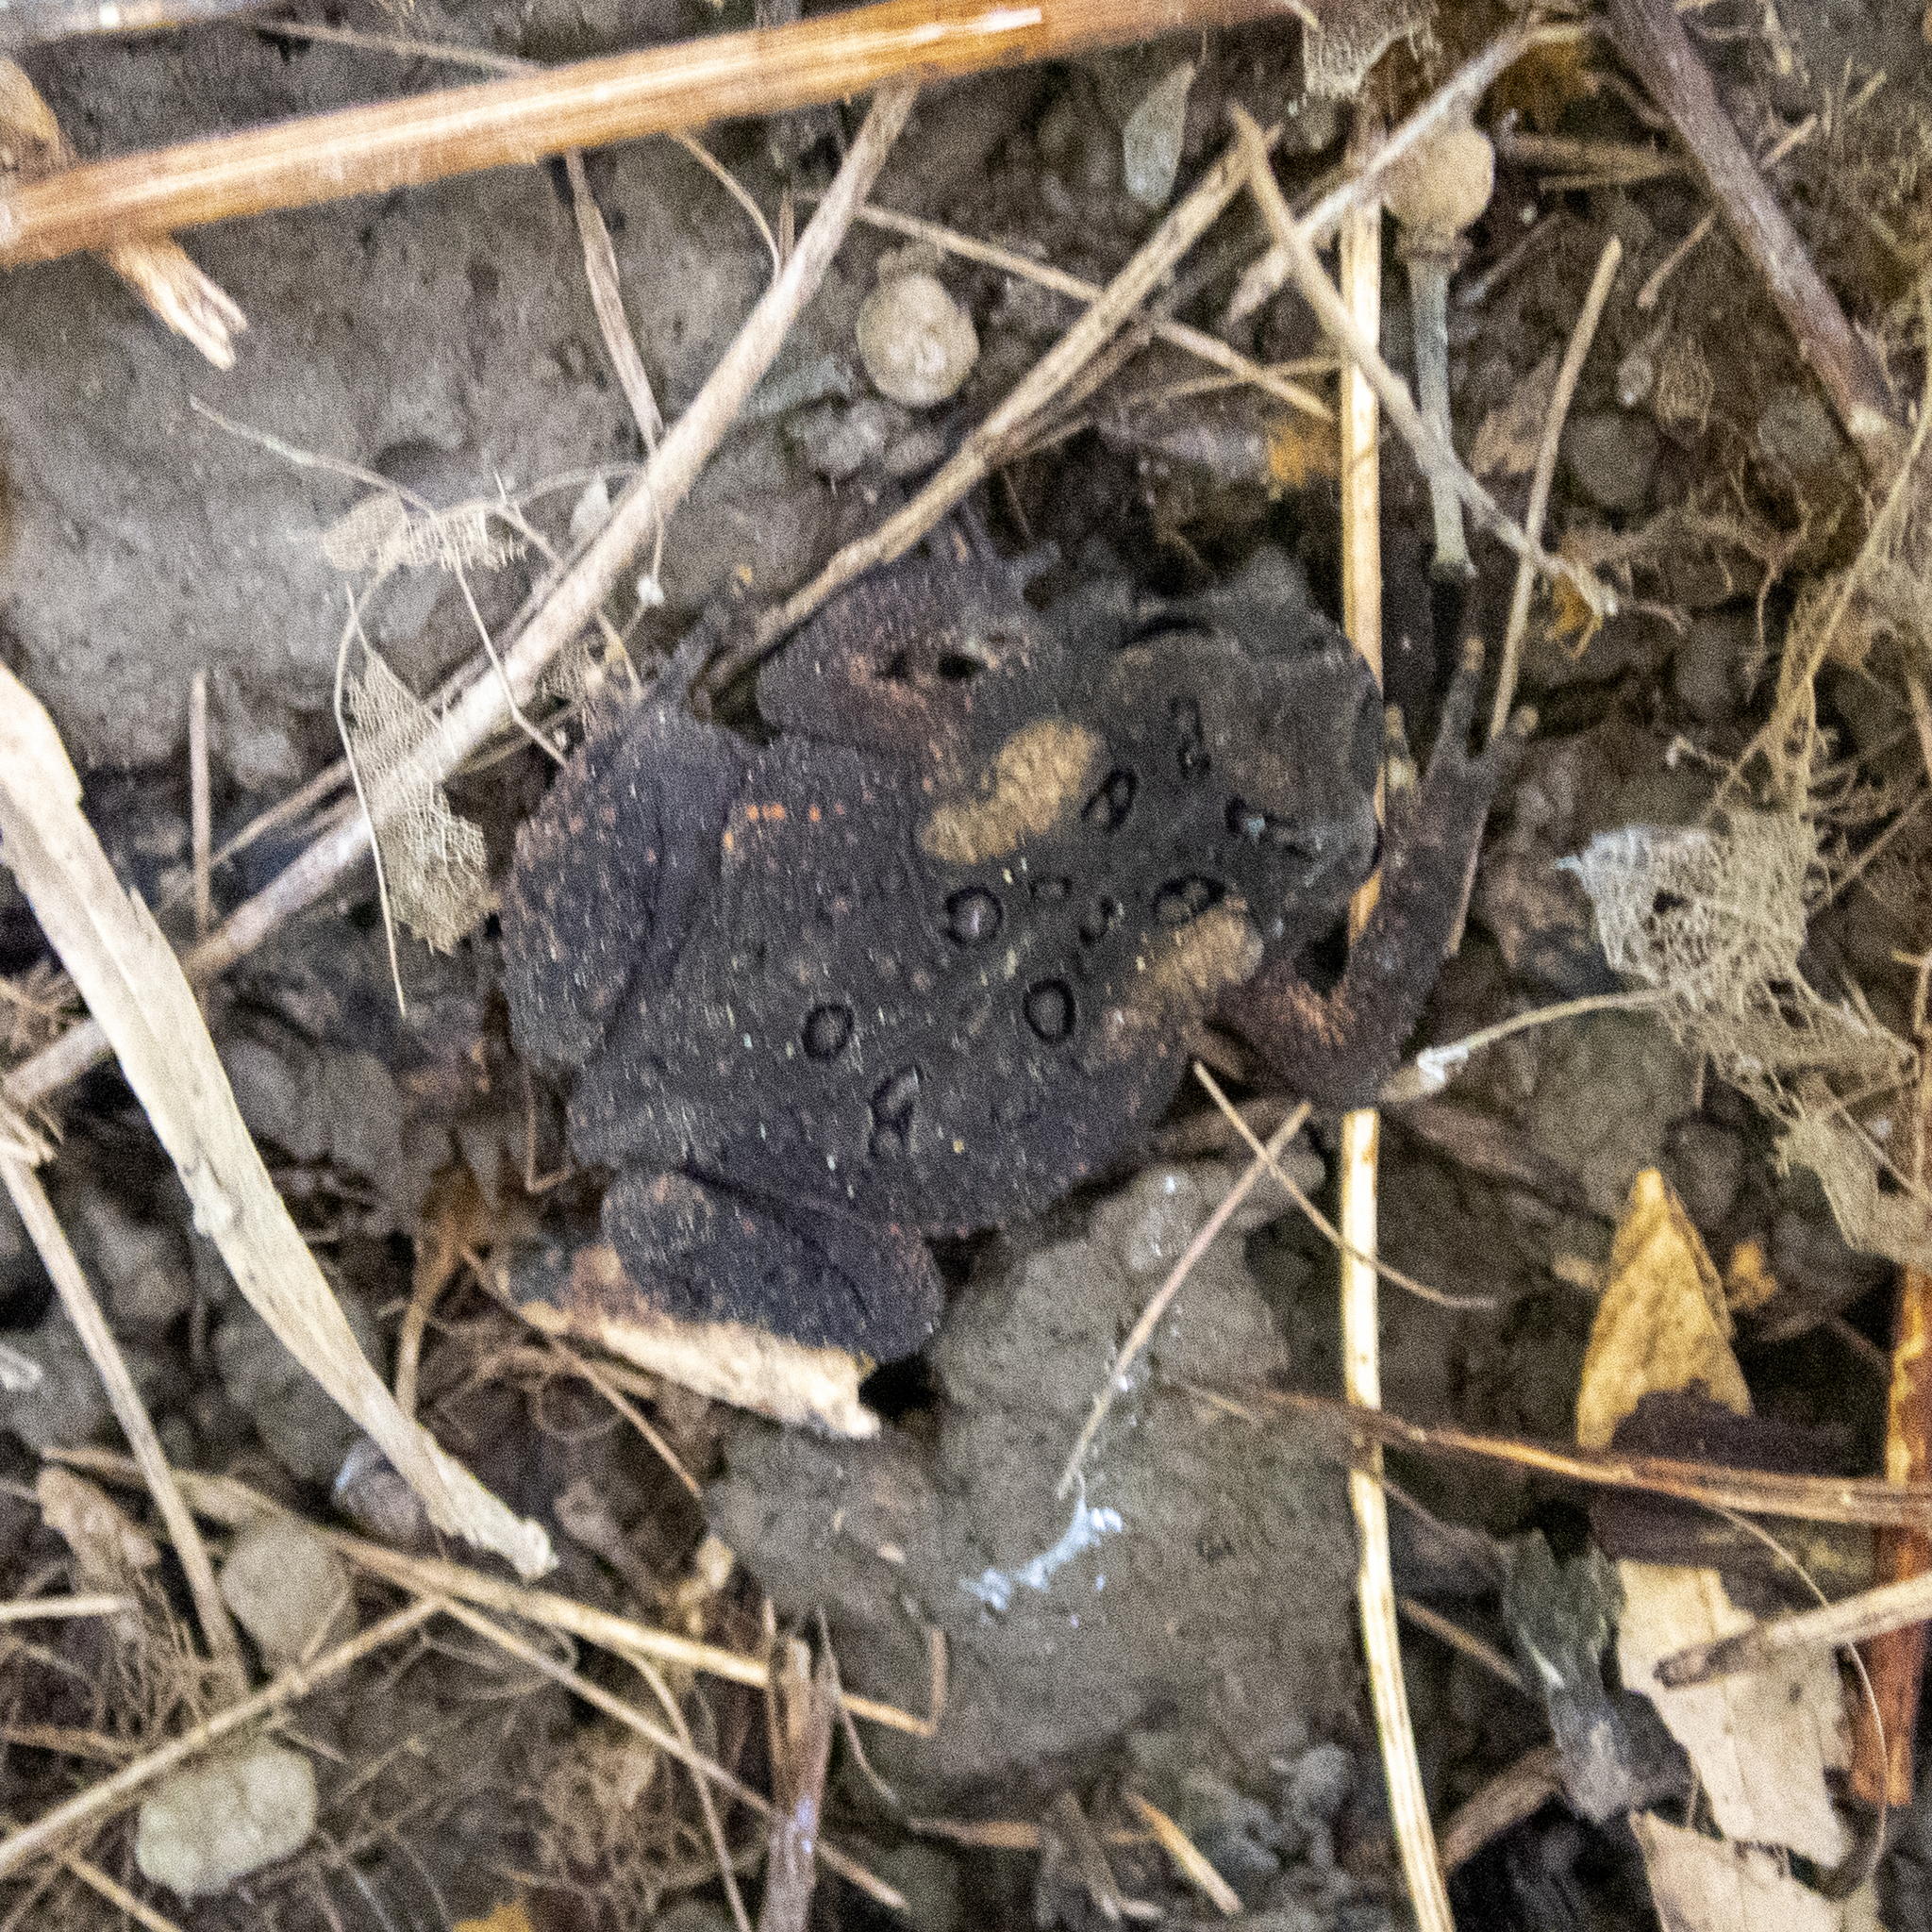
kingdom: Animalia
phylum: Chordata
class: Amphibia
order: Anura
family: Bufonidae
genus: Anaxyrus
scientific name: Anaxyrus americanus
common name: American toad
